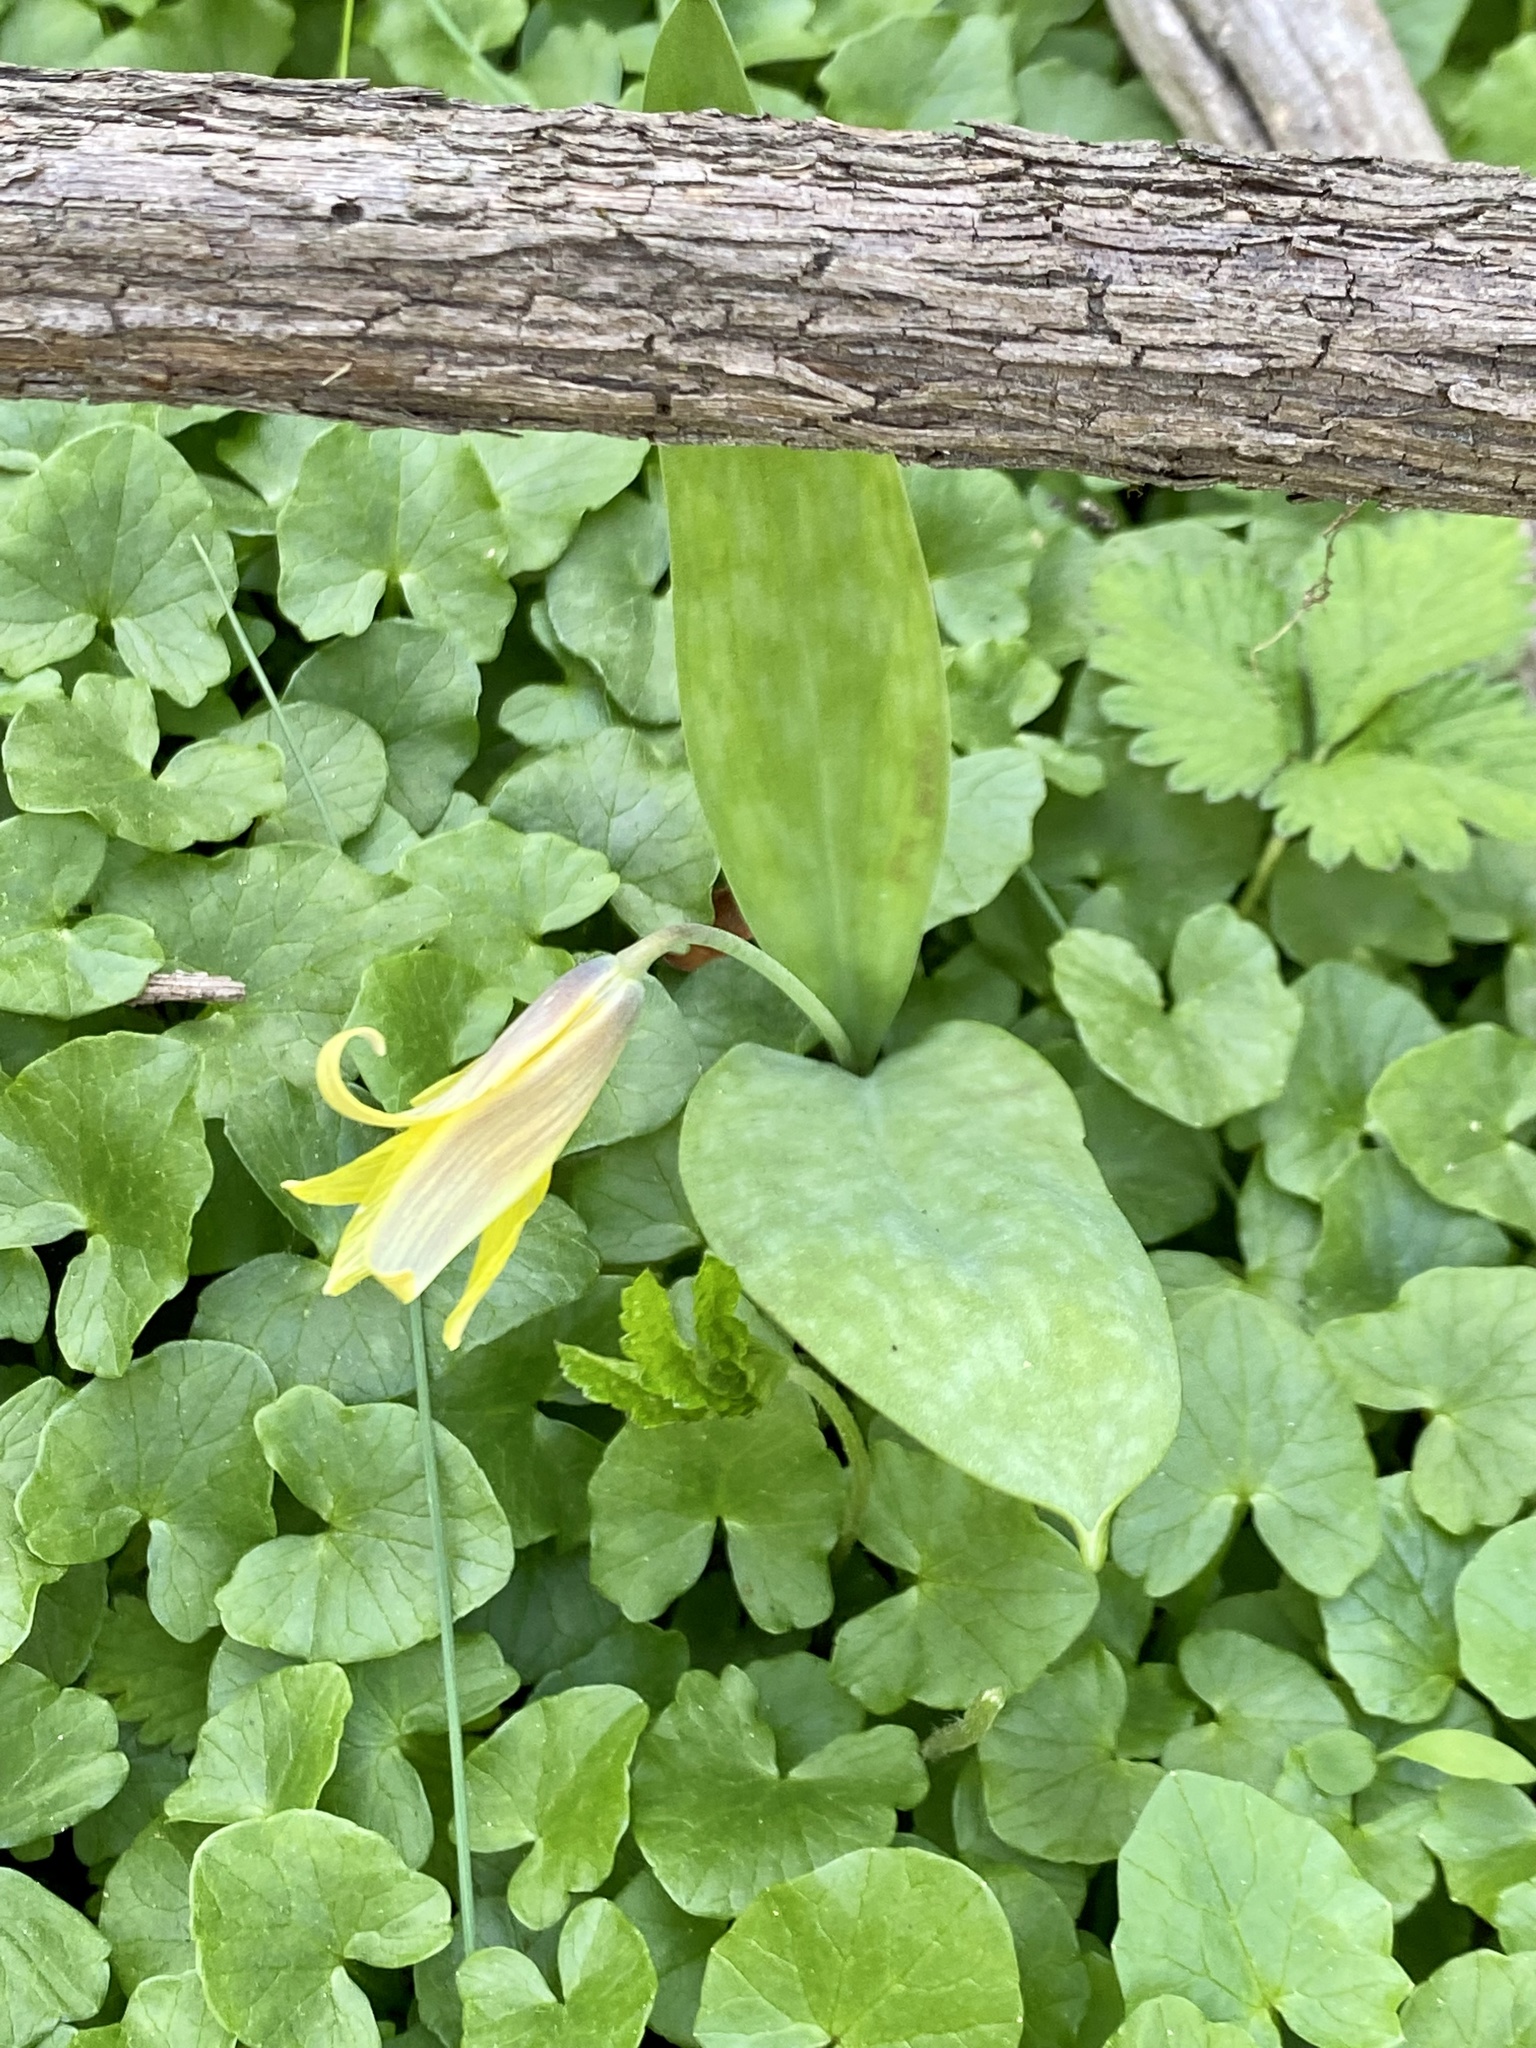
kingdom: Plantae
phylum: Tracheophyta
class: Liliopsida
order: Liliales
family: Liliaceae
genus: Erythronium
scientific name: Erythronium americanum
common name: Yellow adder's-tongue
